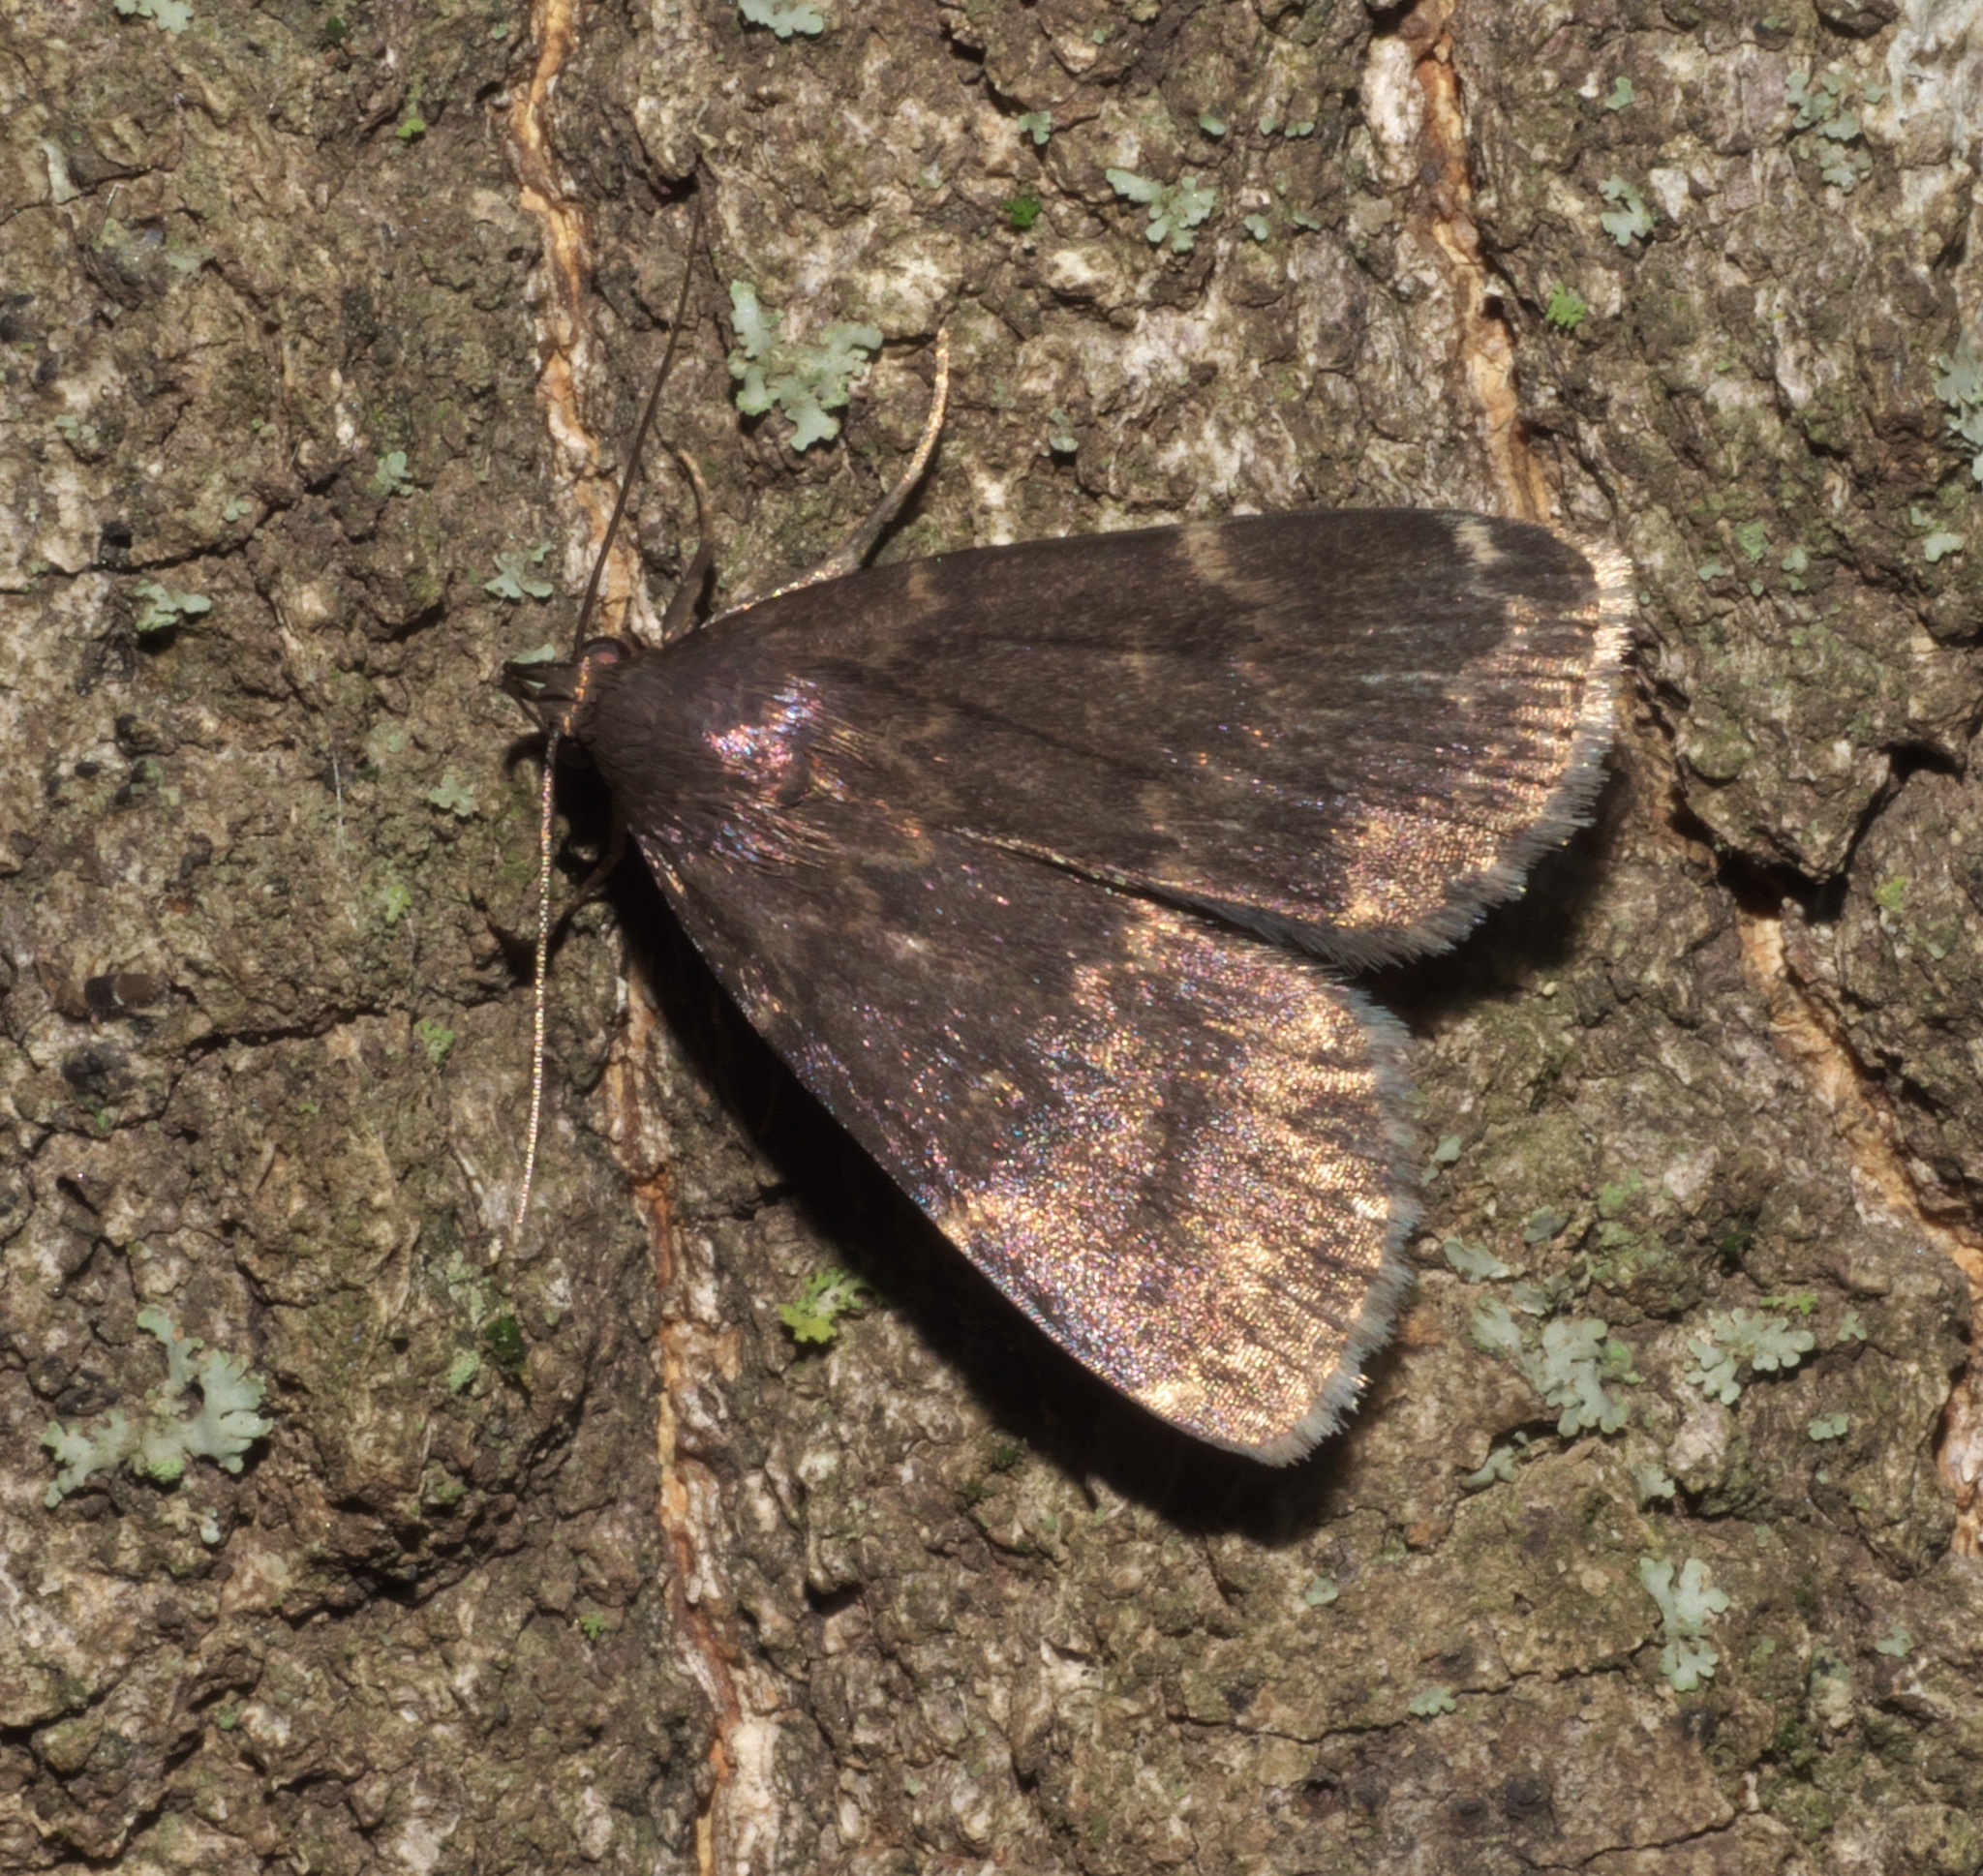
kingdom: Animalia
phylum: Arthropoda
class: Insecta
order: Lepidoptera
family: Erebidae
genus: Idia
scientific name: Idia lubricalis
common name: Twin-striped tabby
